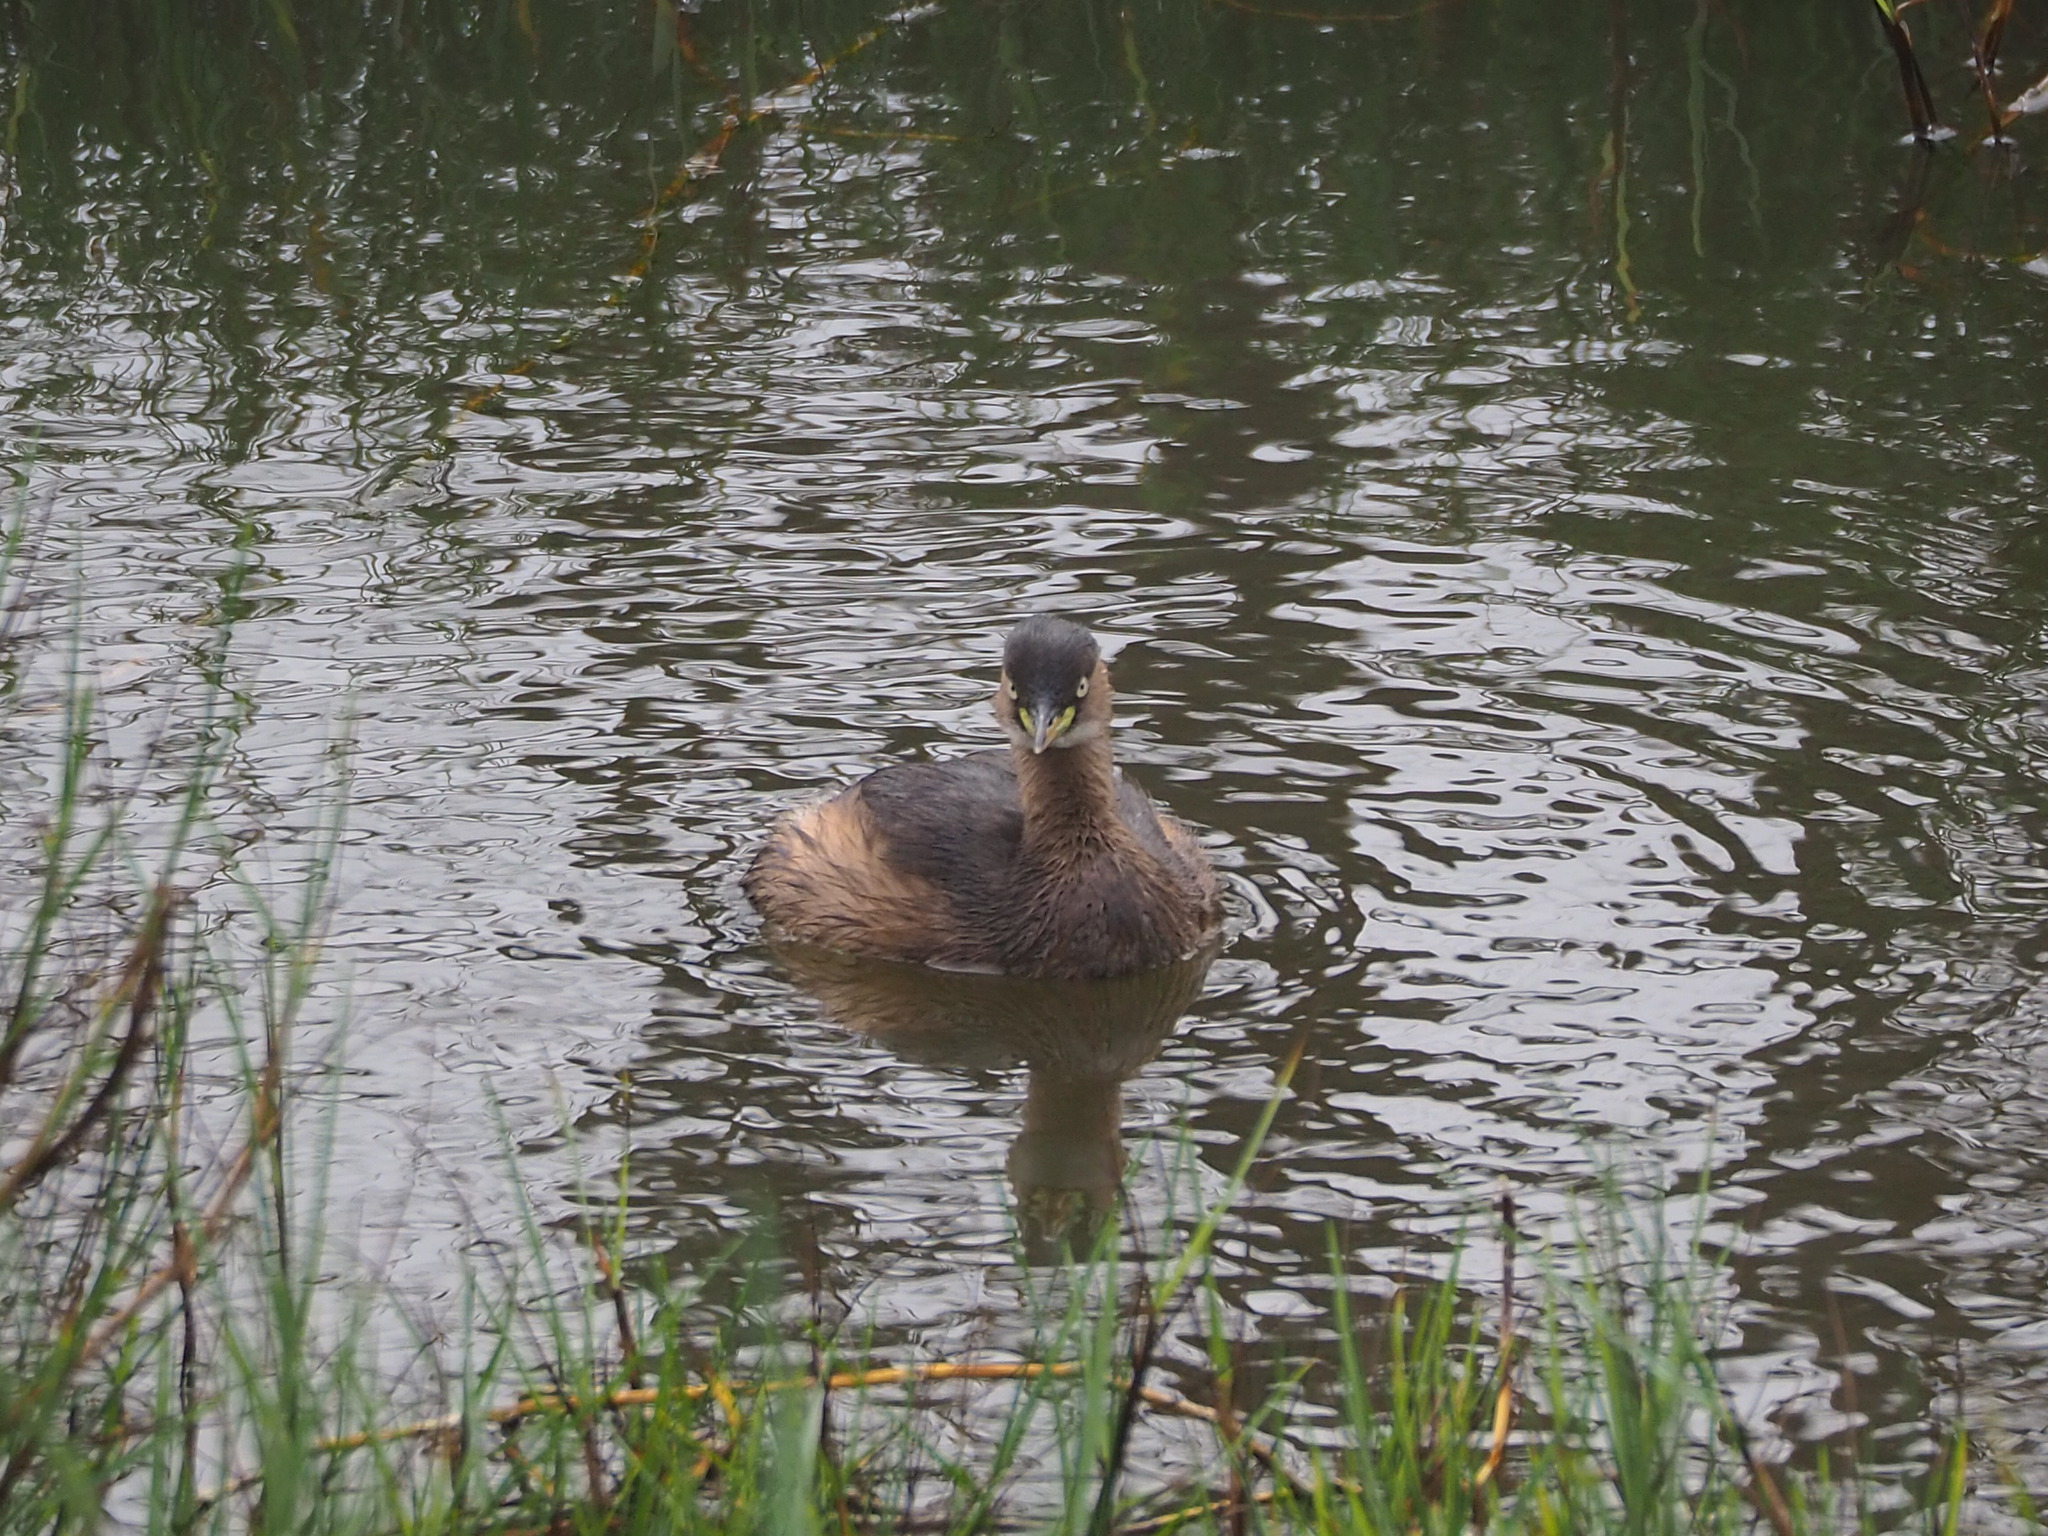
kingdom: Animalia
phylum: Chordata
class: Aves
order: Podicipediformes
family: Podicipedidae
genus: Tachybaptus
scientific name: Tachybaptus ruficollis
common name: Little grebe
